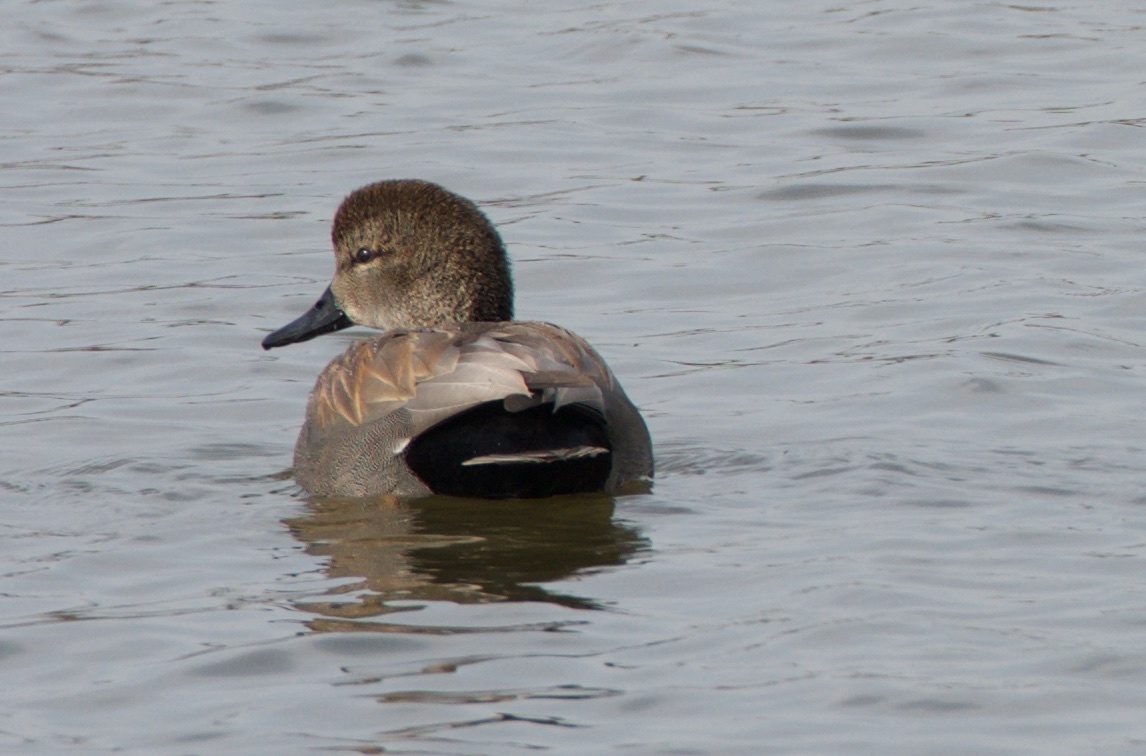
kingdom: Animalia
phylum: Chordata
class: Aves
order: Anseriformes
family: Anatidae
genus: Mareca
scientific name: Mareca strepera
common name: Gadwall
